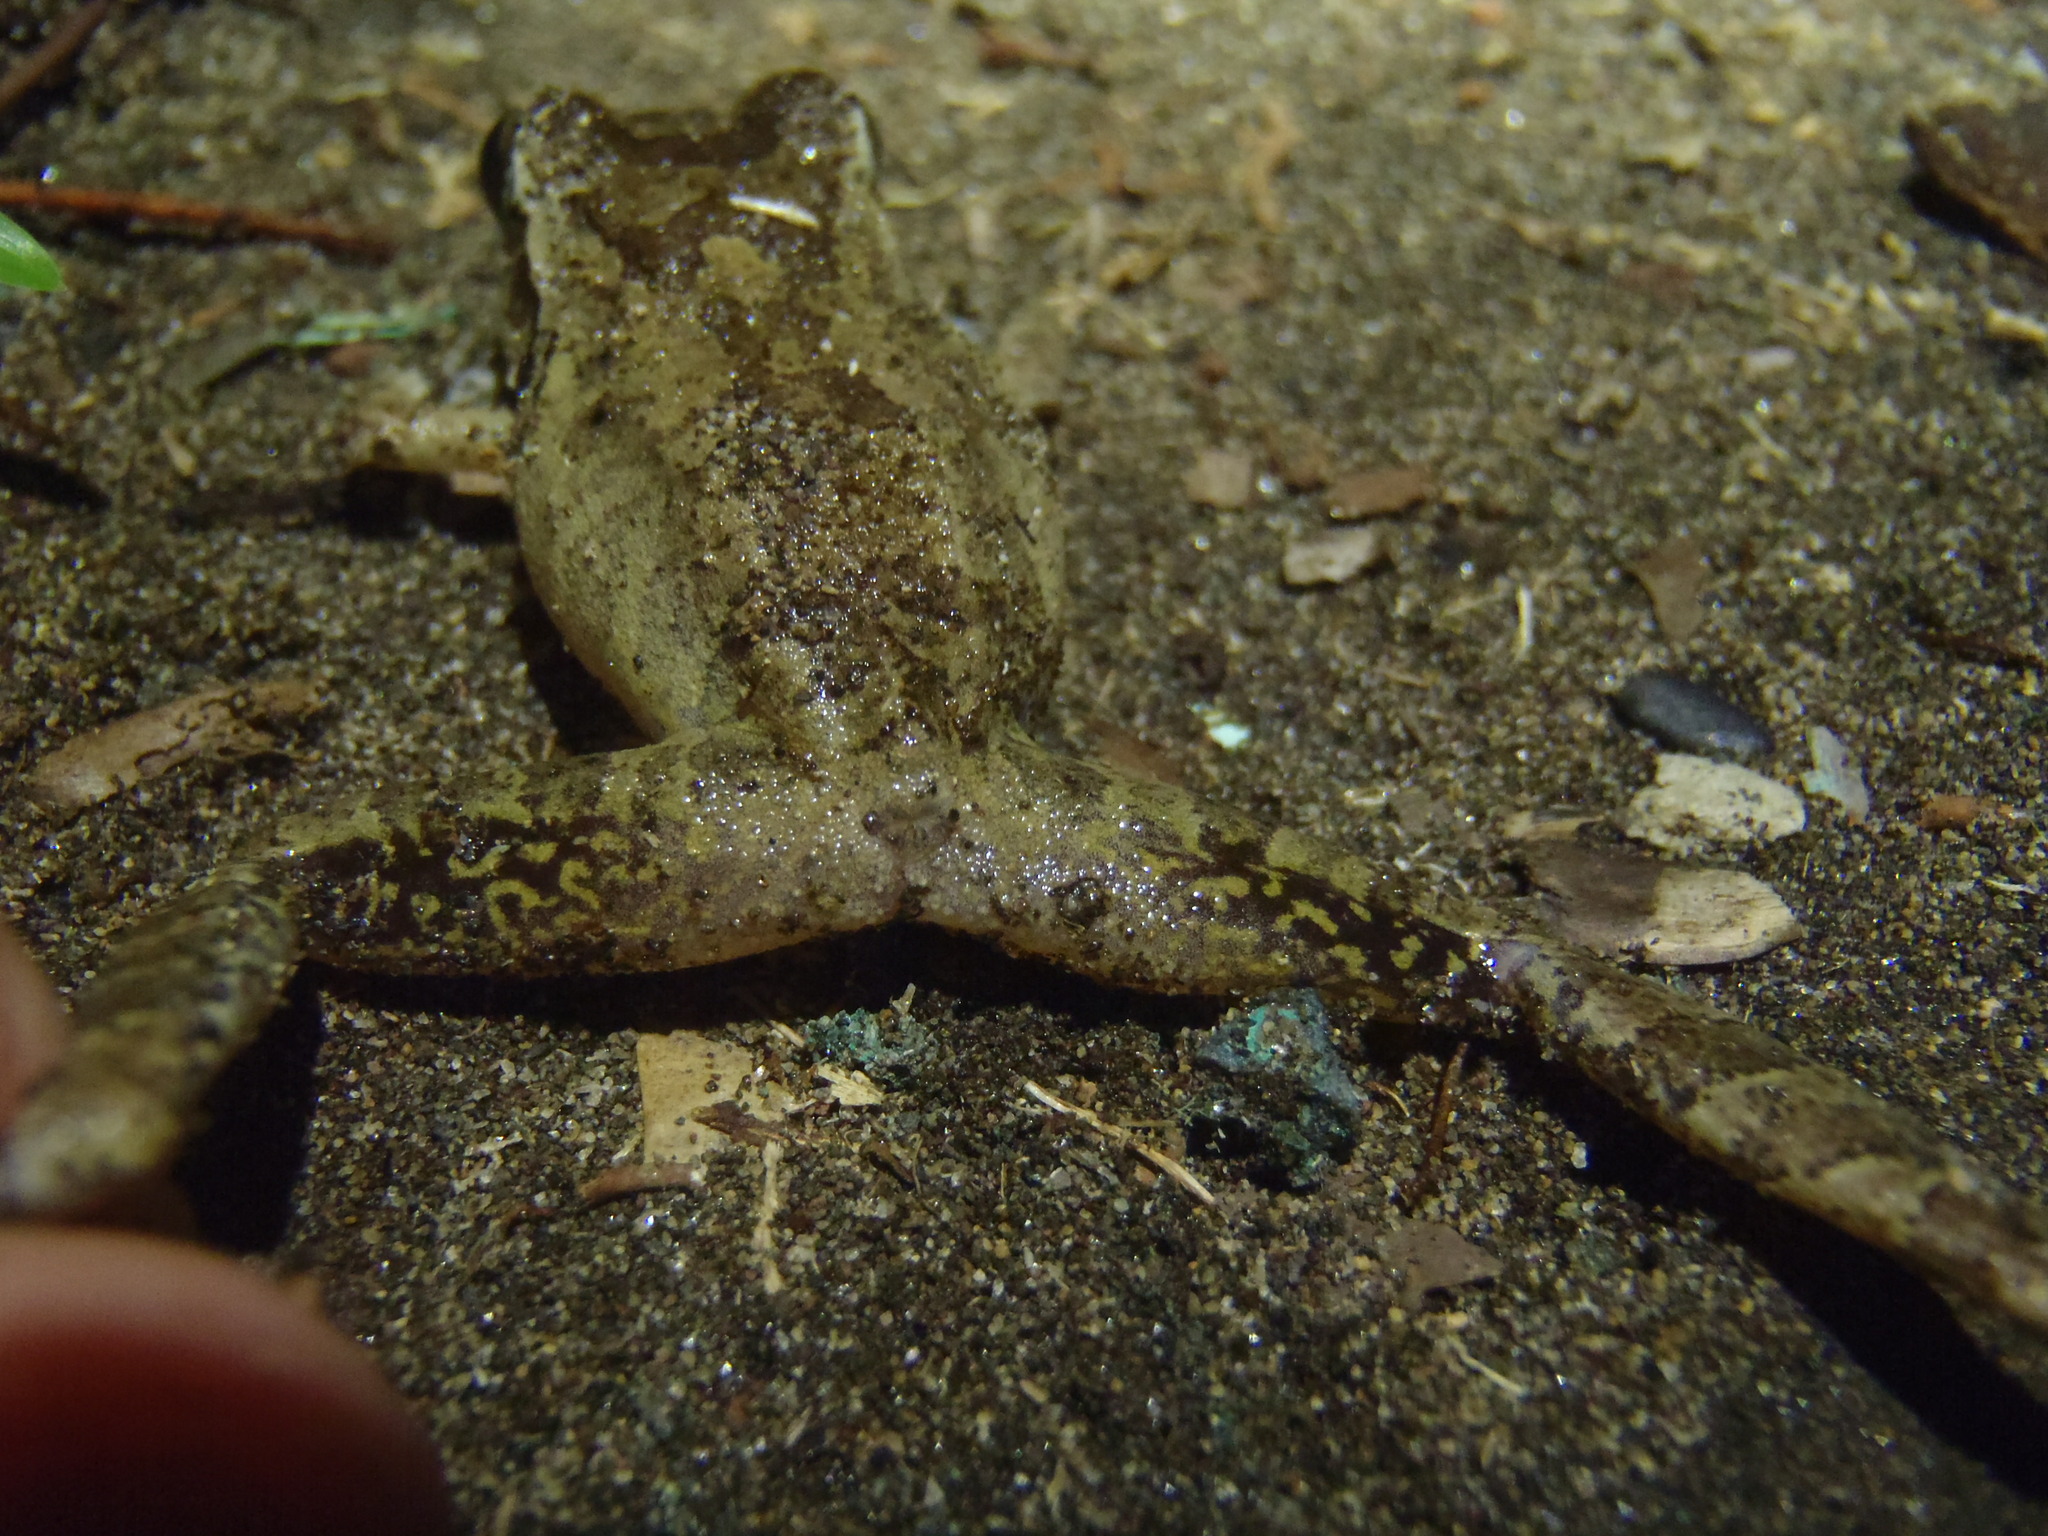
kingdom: Animalia
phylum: Chordata
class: Amphibia
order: Anura
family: Craugastoridae
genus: Craugastor
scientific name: Craugastor fitzingeri
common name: Fitzinger's robber frog
